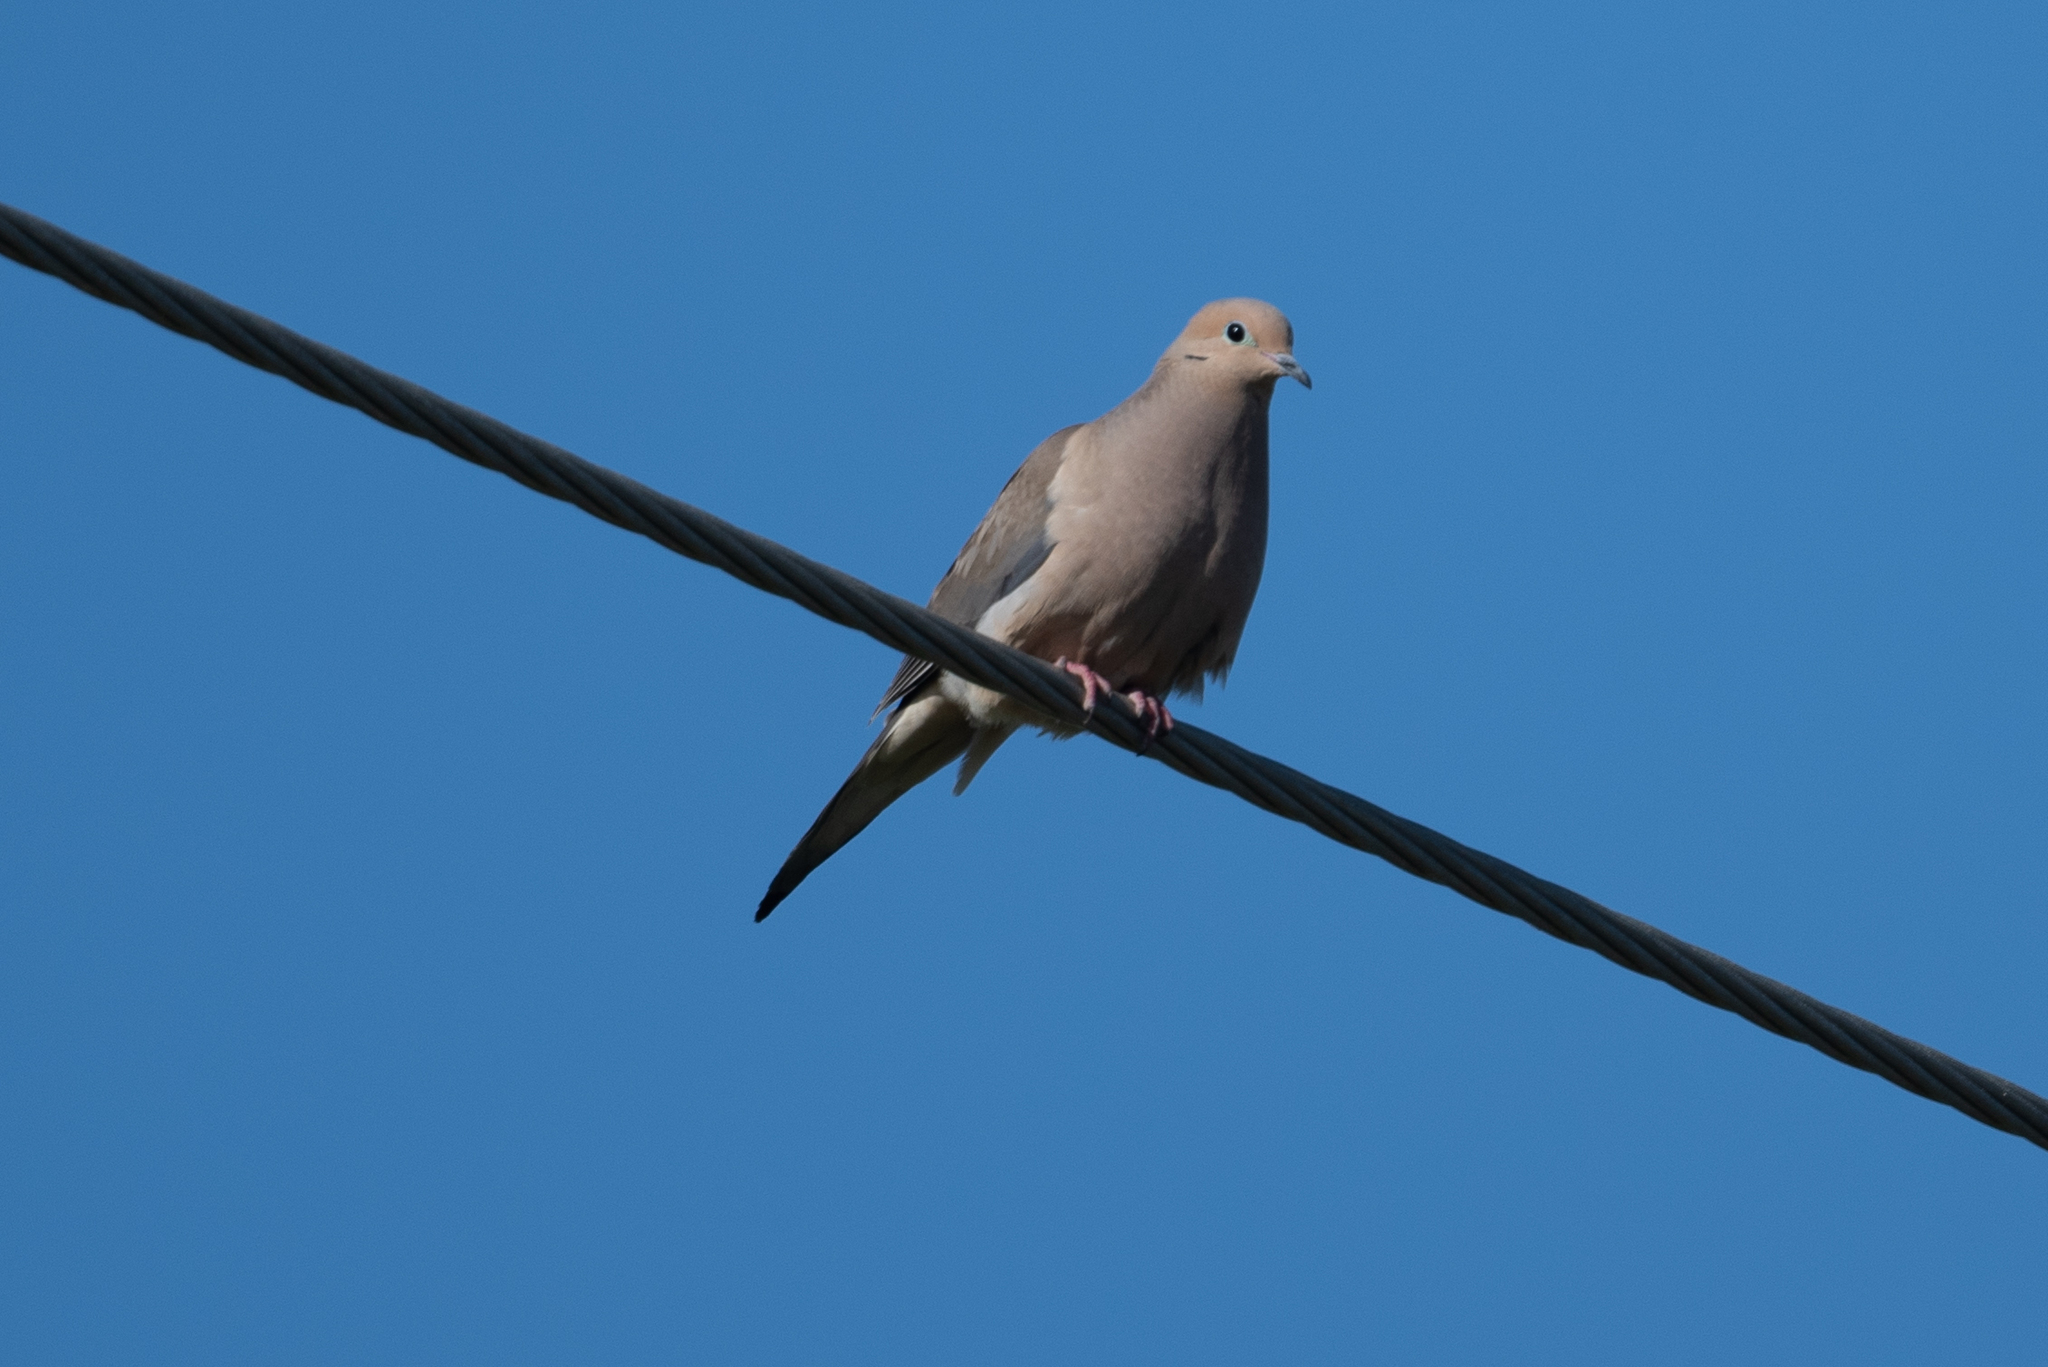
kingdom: Animalia
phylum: Chordata
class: Aves
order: Columbiformes
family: Columbidae
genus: Zenaida
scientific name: Zenaida macroura
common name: Mourning dove
